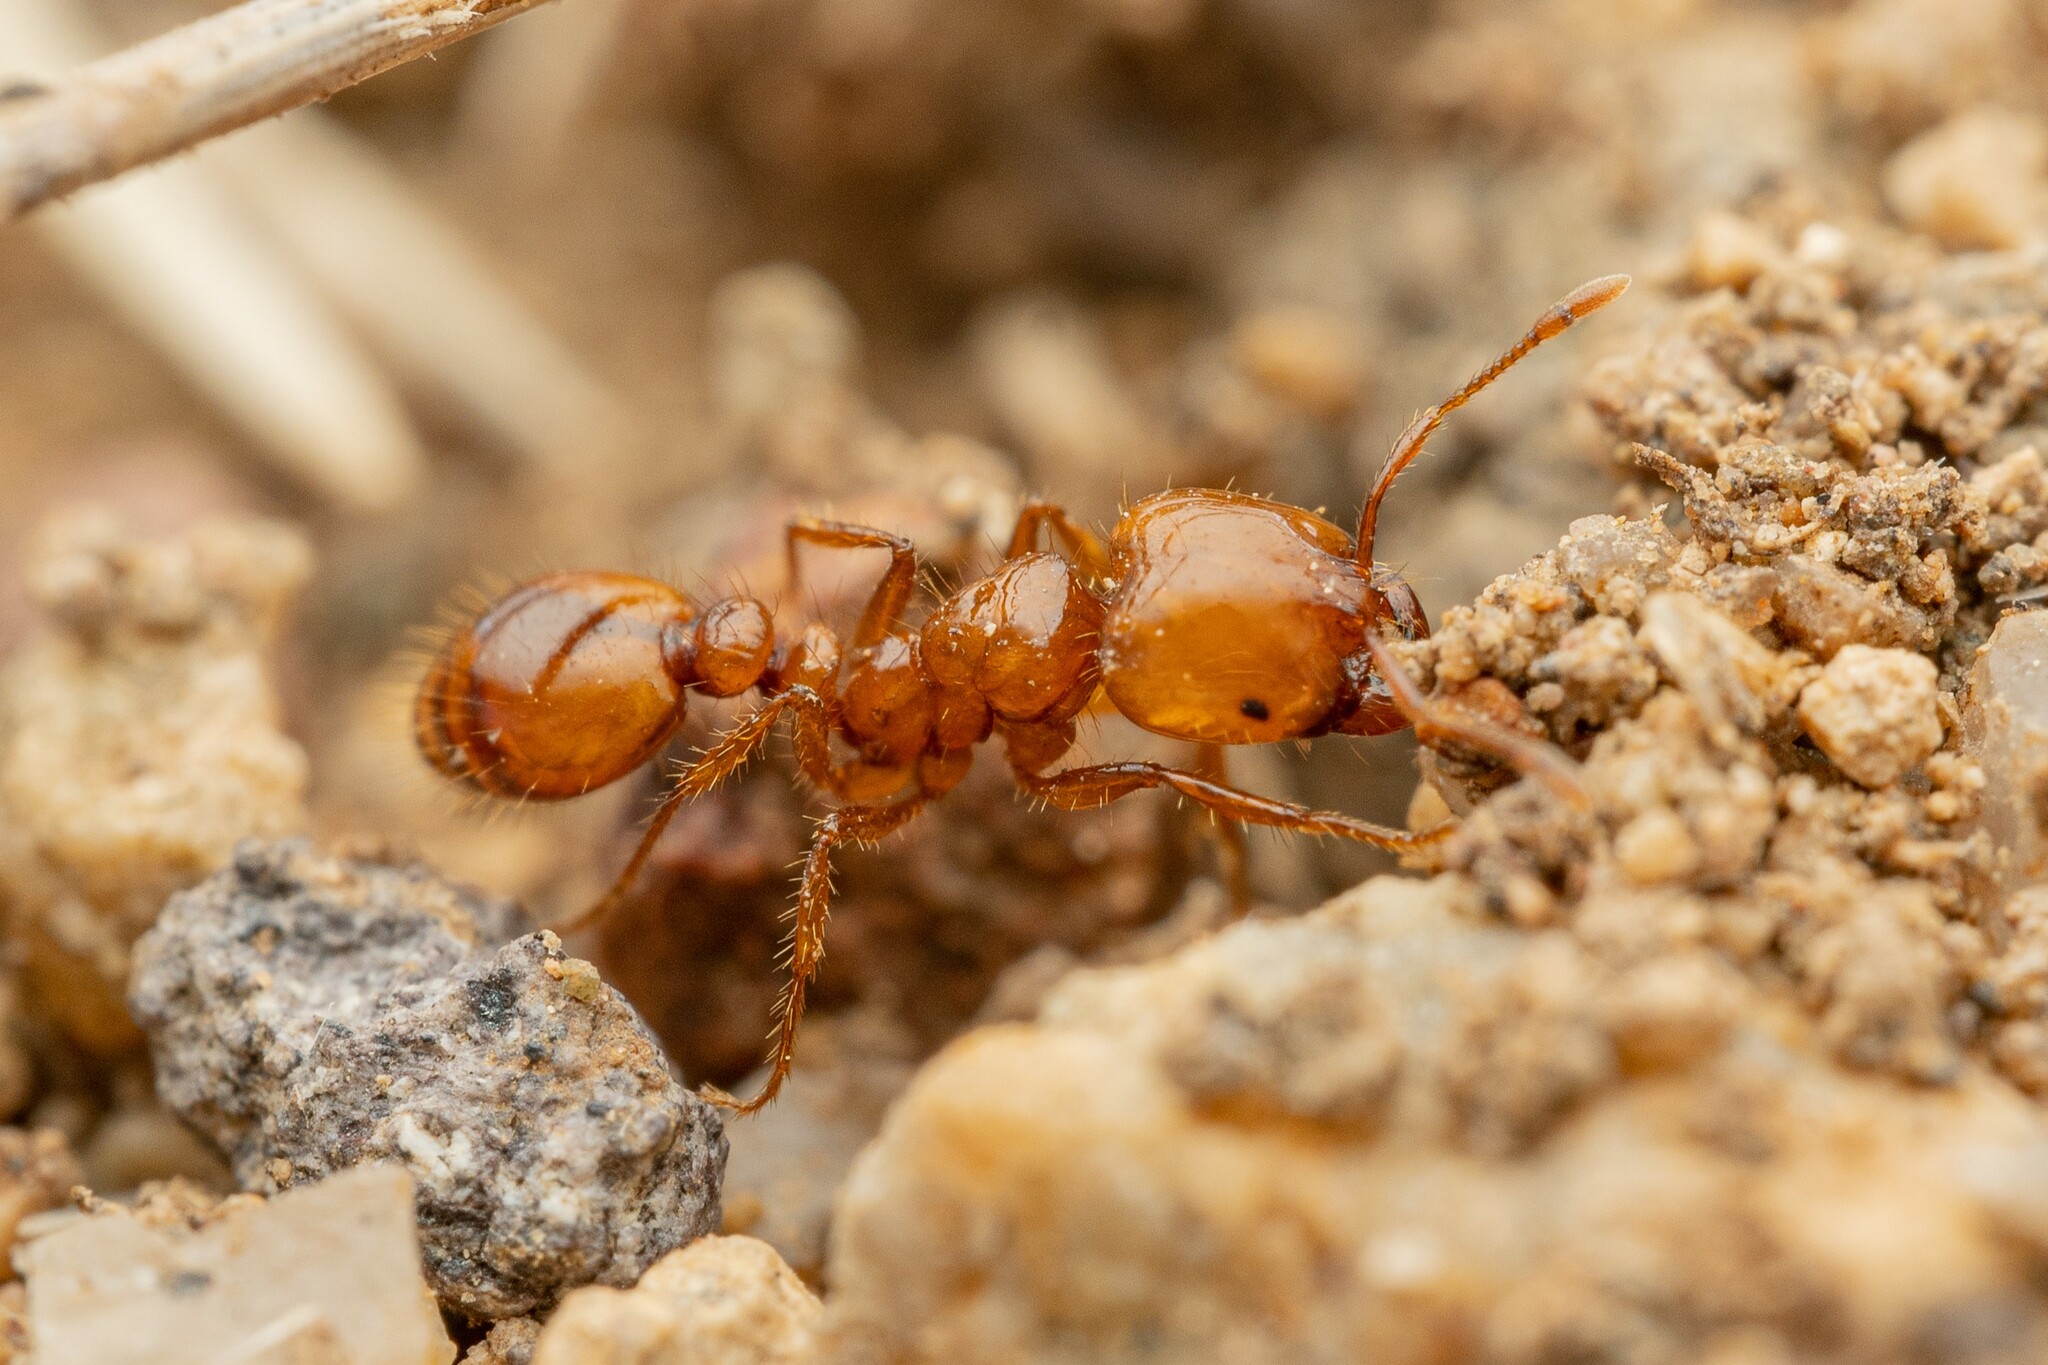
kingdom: Animalia
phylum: Arthropoda
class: Insecta
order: Hymenoptera
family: Formicidae
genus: Solenopsis
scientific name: Solenopsis amblychila
